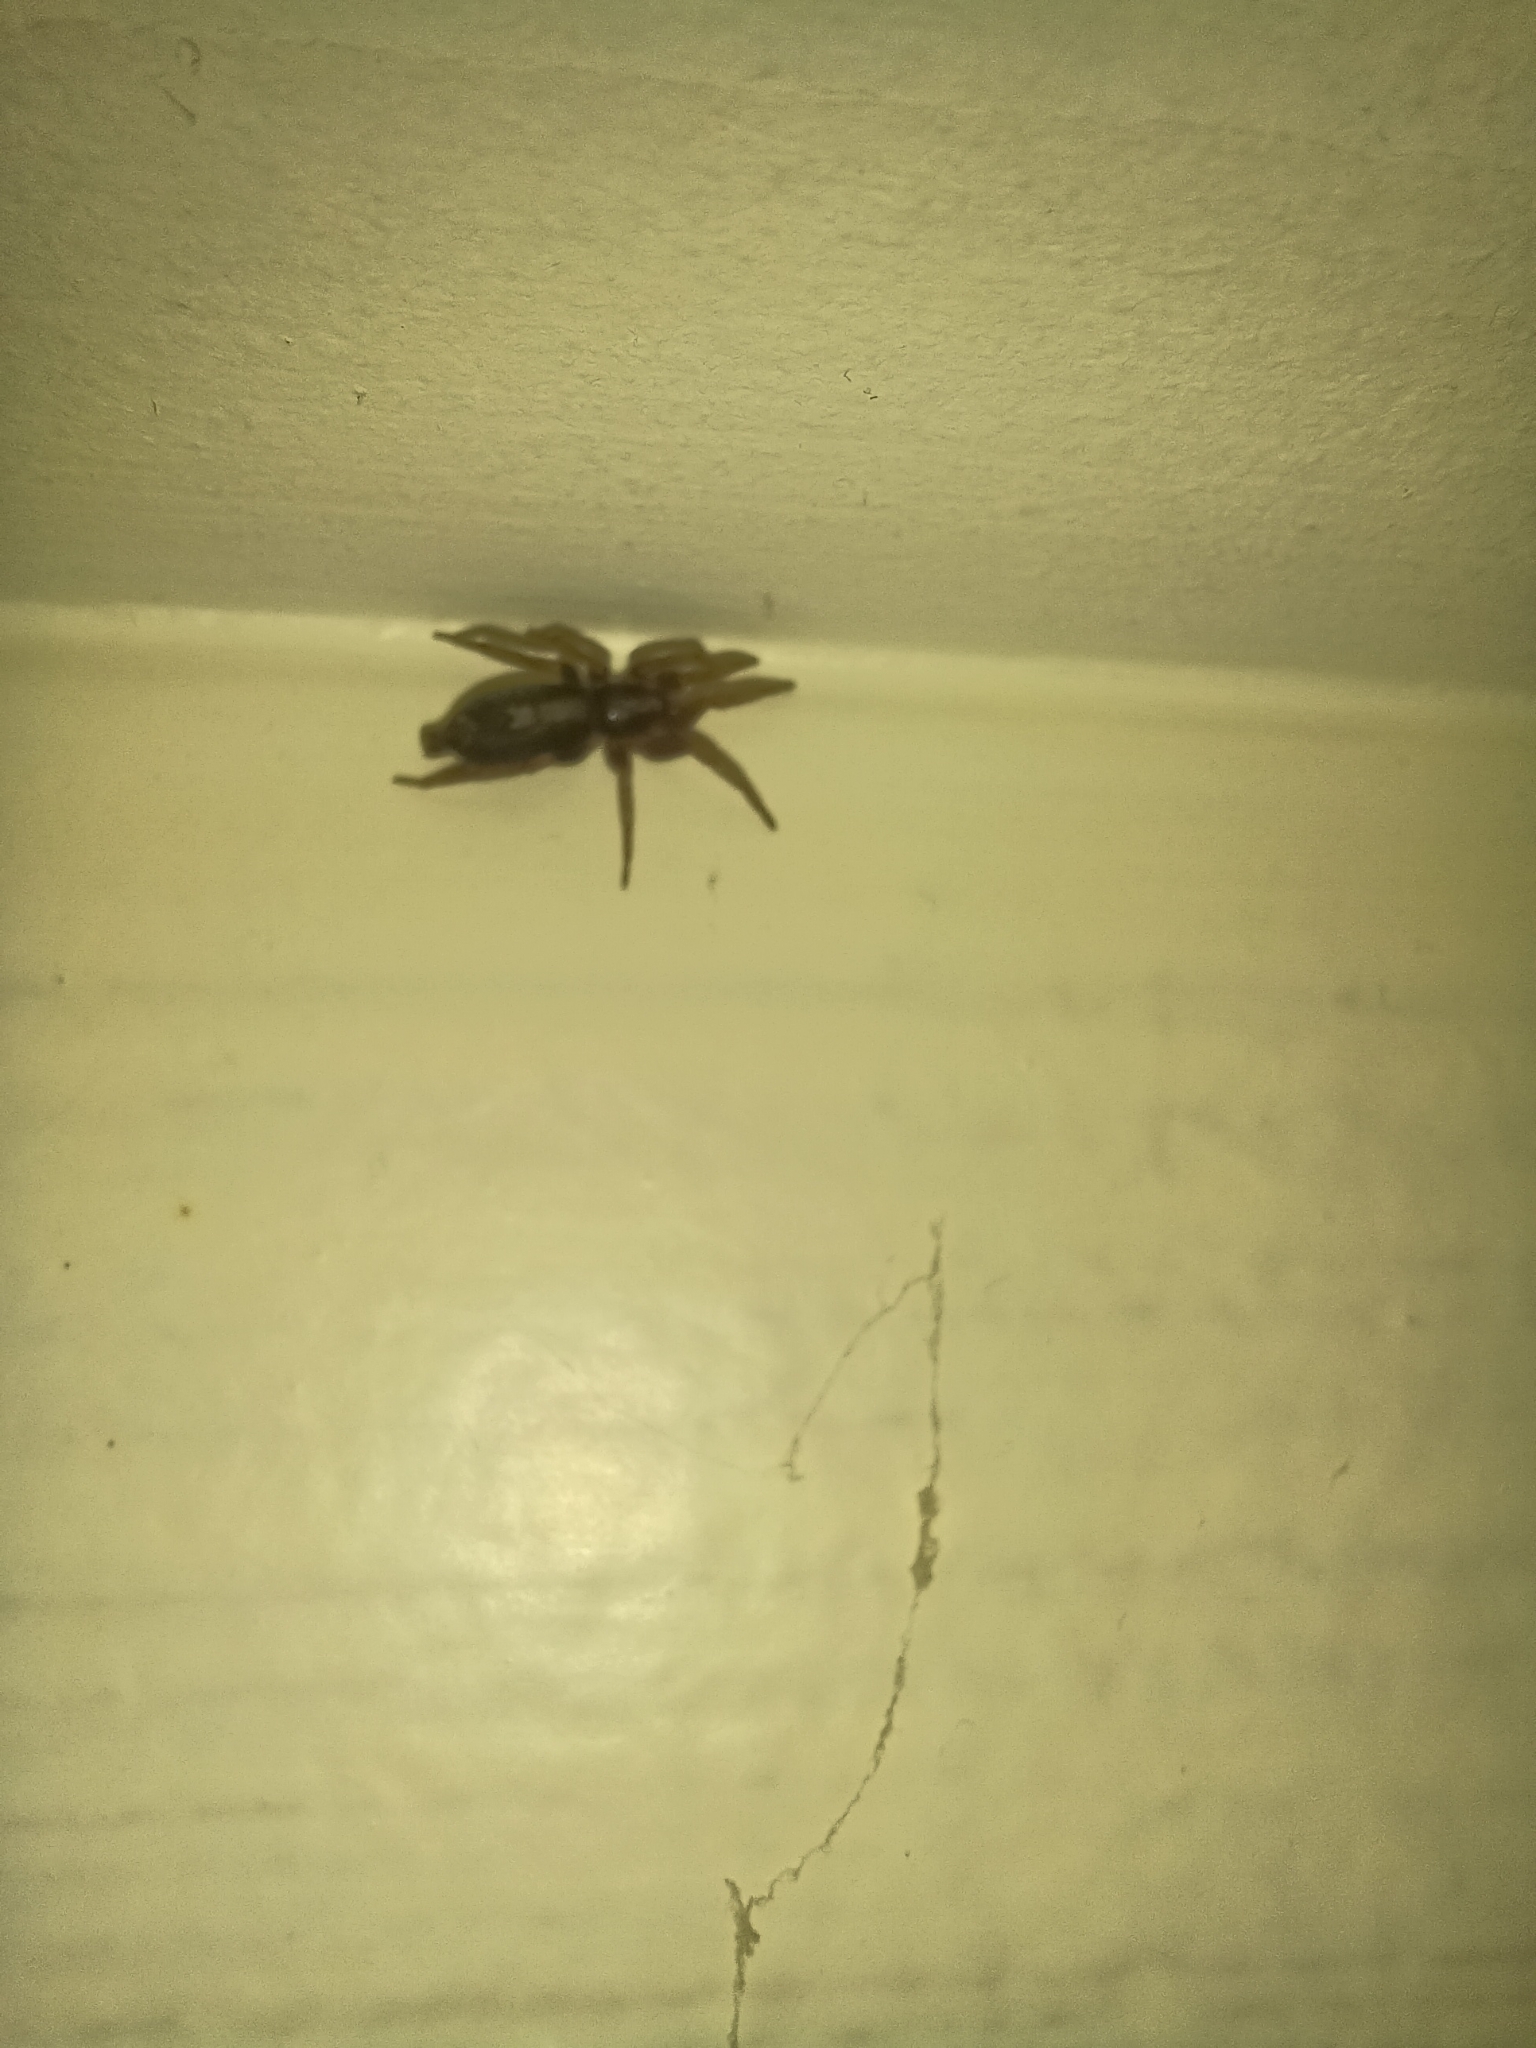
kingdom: Animalia
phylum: Arthropoda
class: Arachnida
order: Araneae
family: Gnaphosidae
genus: Herpyllus
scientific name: Herpyllus ecclesiasticus
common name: Eastern parson spider
